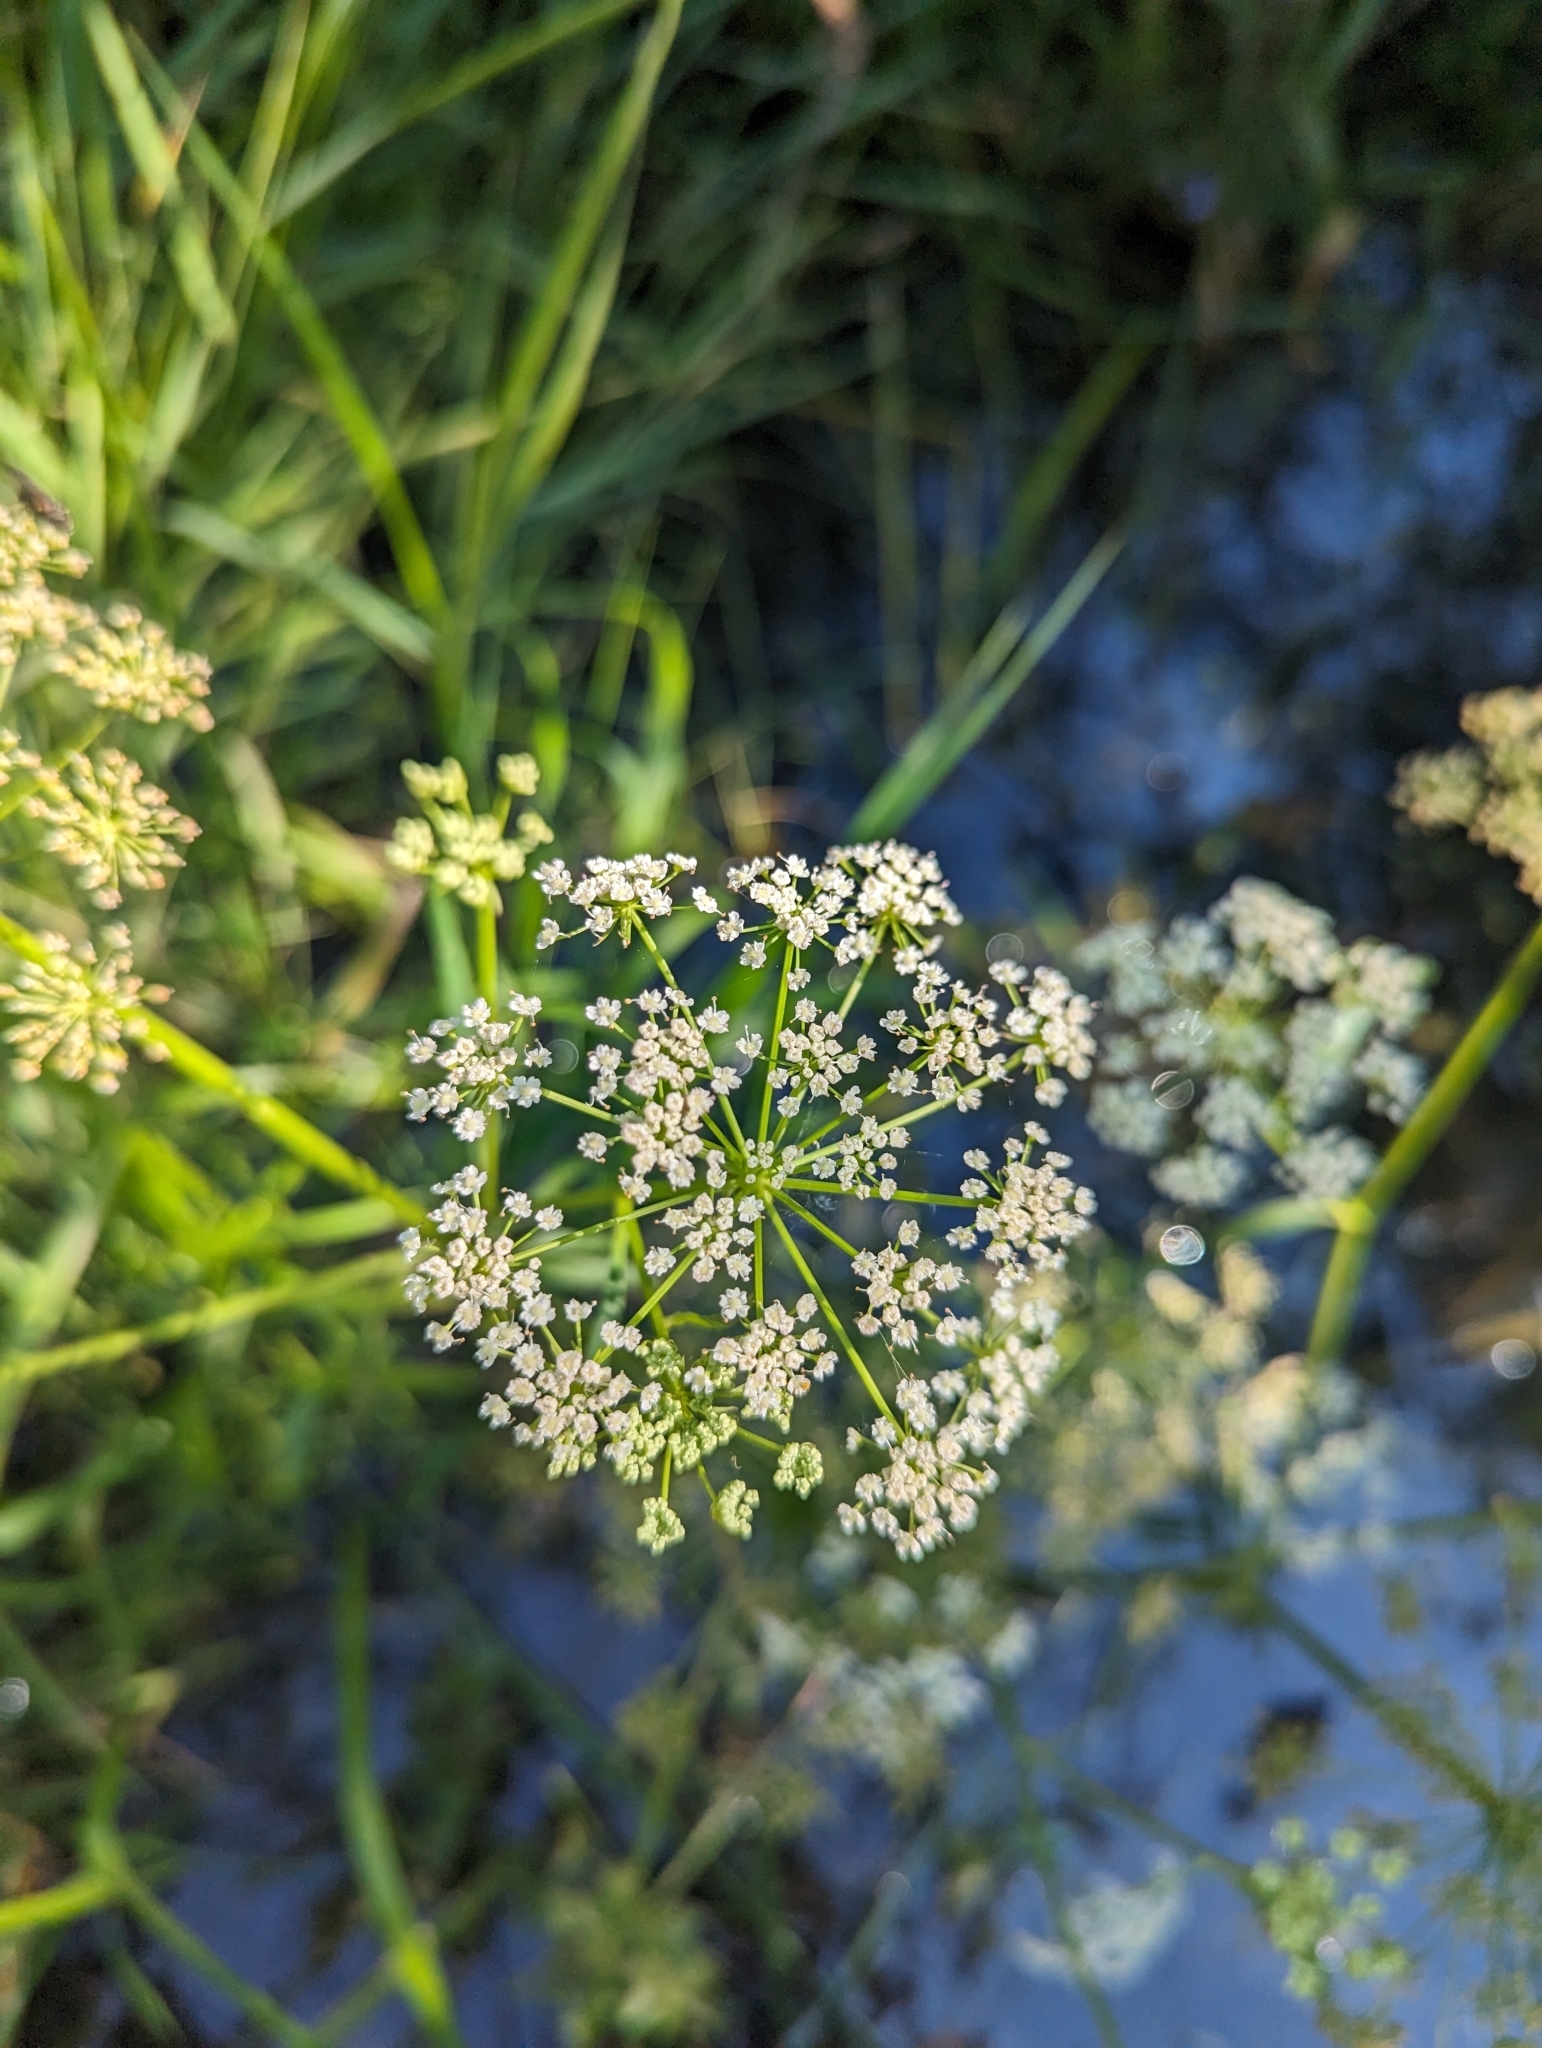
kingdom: Plantae
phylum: Tracheophyta
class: Magnoliopsida
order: Apiales
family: Apiaceae
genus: Sium
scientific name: Sium suave
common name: Hemlock water-parsnip
